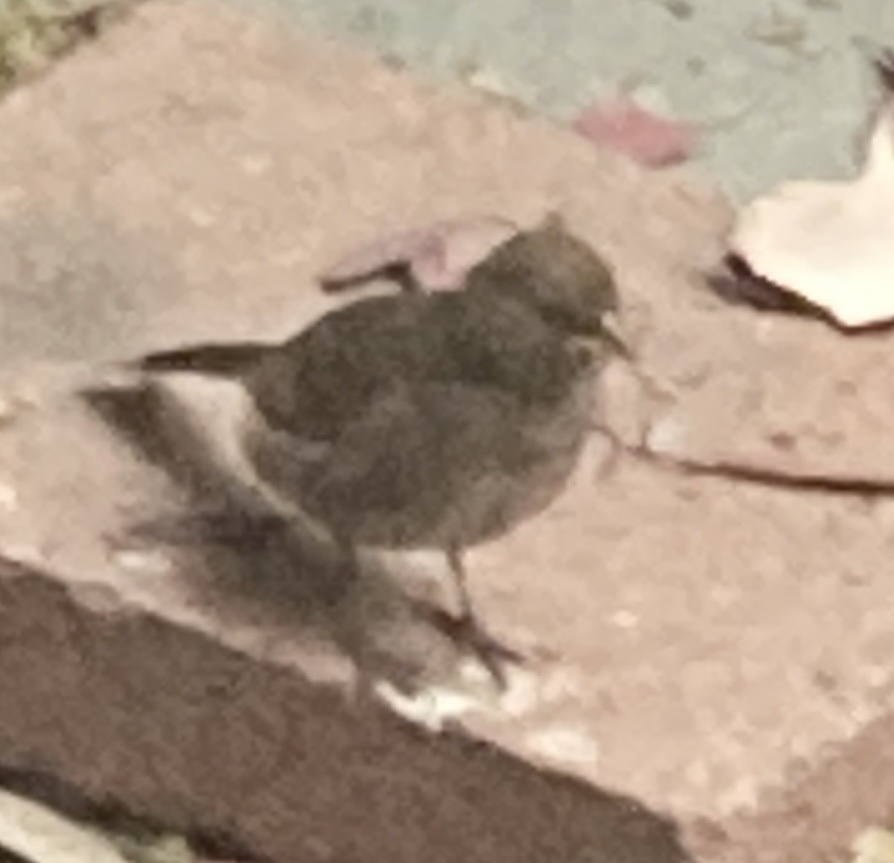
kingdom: Animalia
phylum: Chordata
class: Aves
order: Passeriformes
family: Passerellidae
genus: Melozone
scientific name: Melozone crissalis
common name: California towhee
